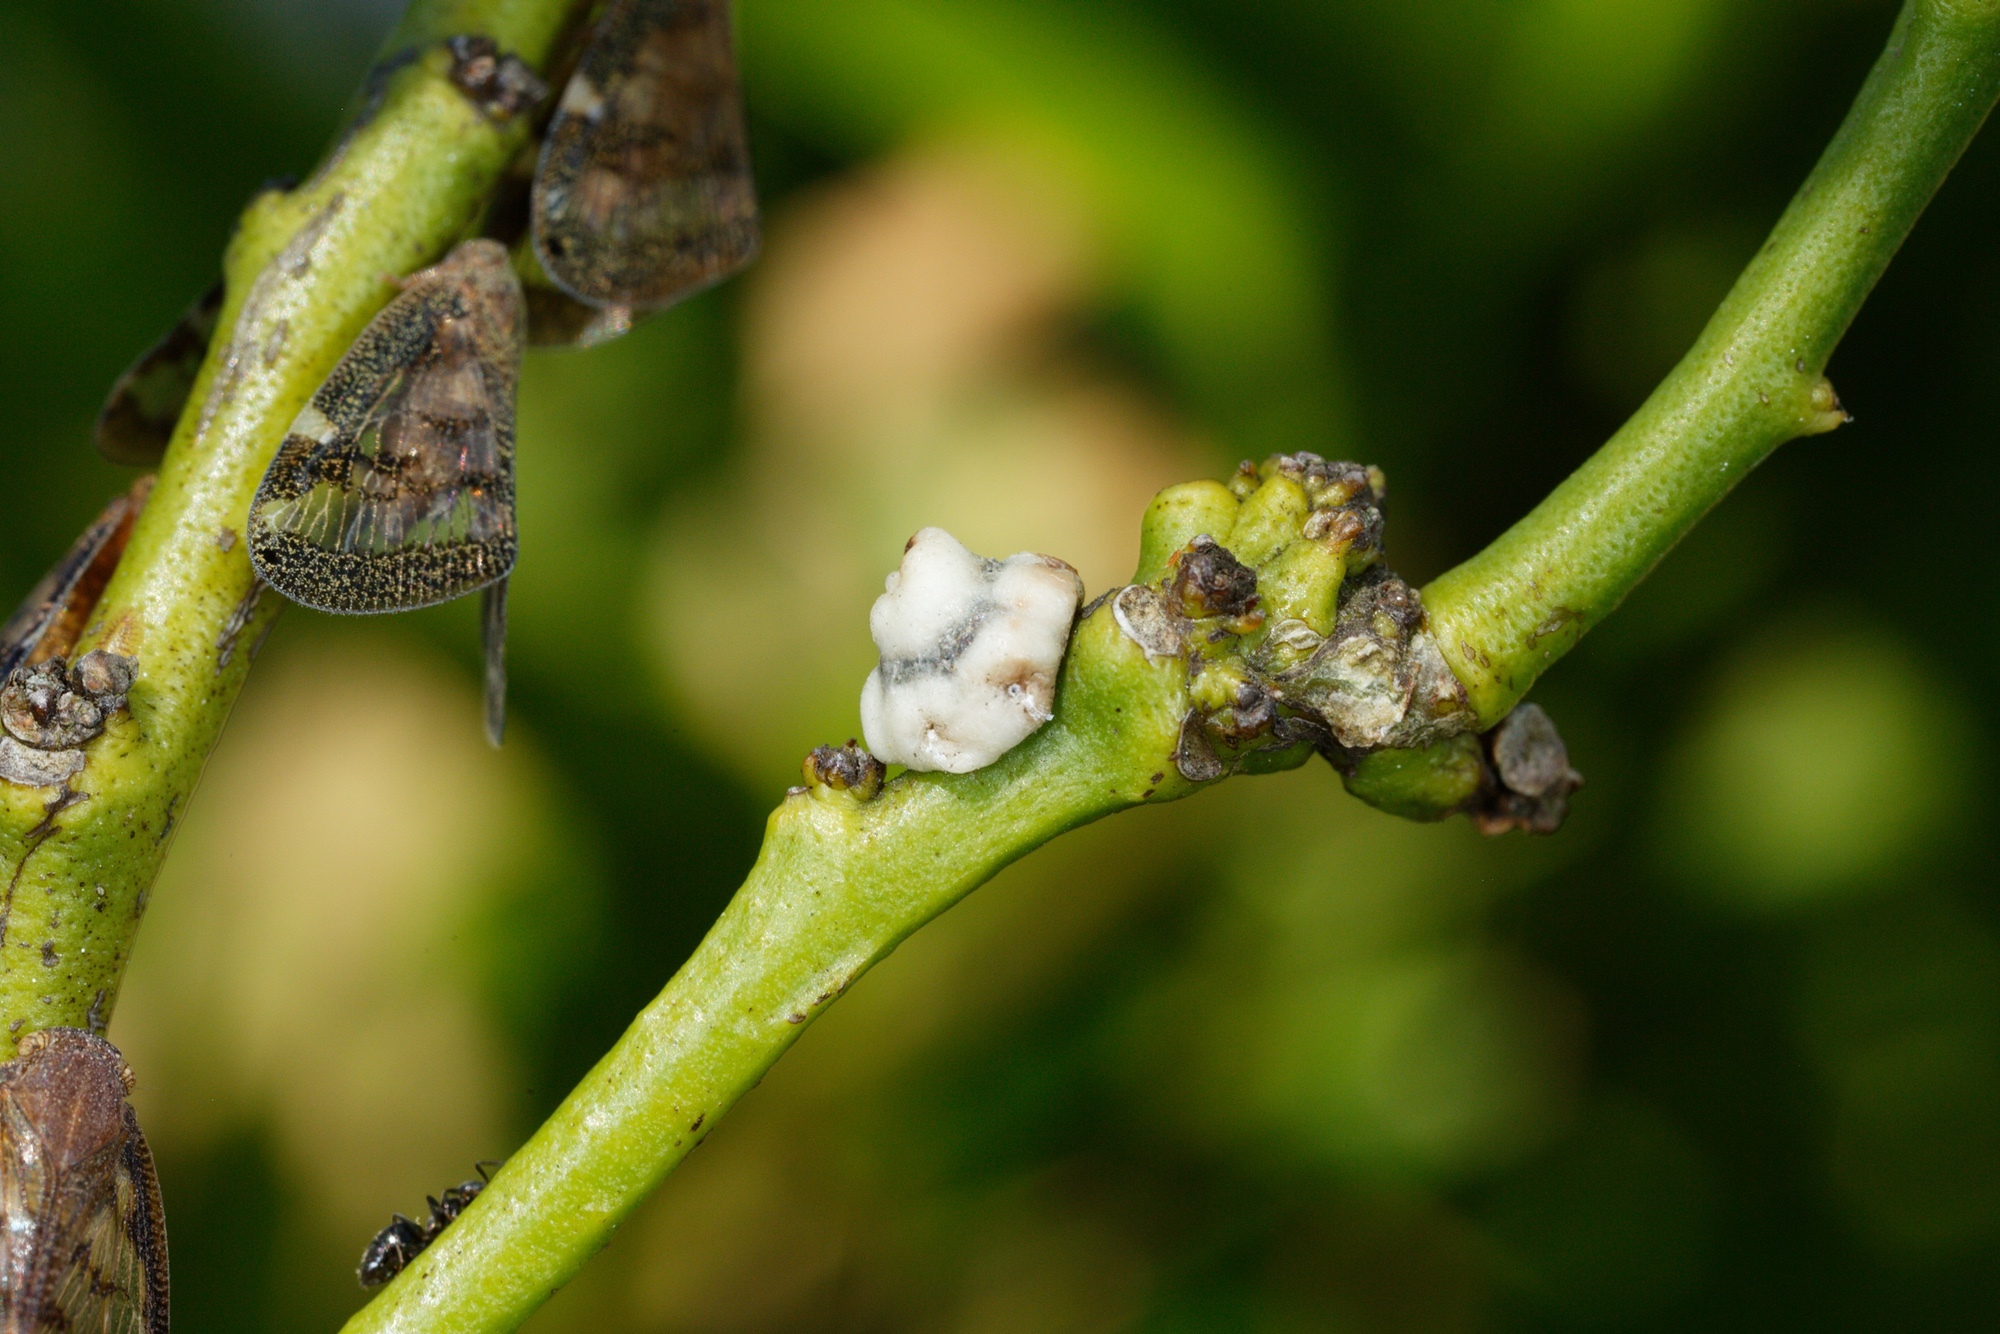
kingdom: Animalia
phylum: Arthropoda
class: Insecta
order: Hemiptera
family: Coccidae
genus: Ceroplastes
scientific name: Ceroplastes sinensis
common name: Hard wax scale
